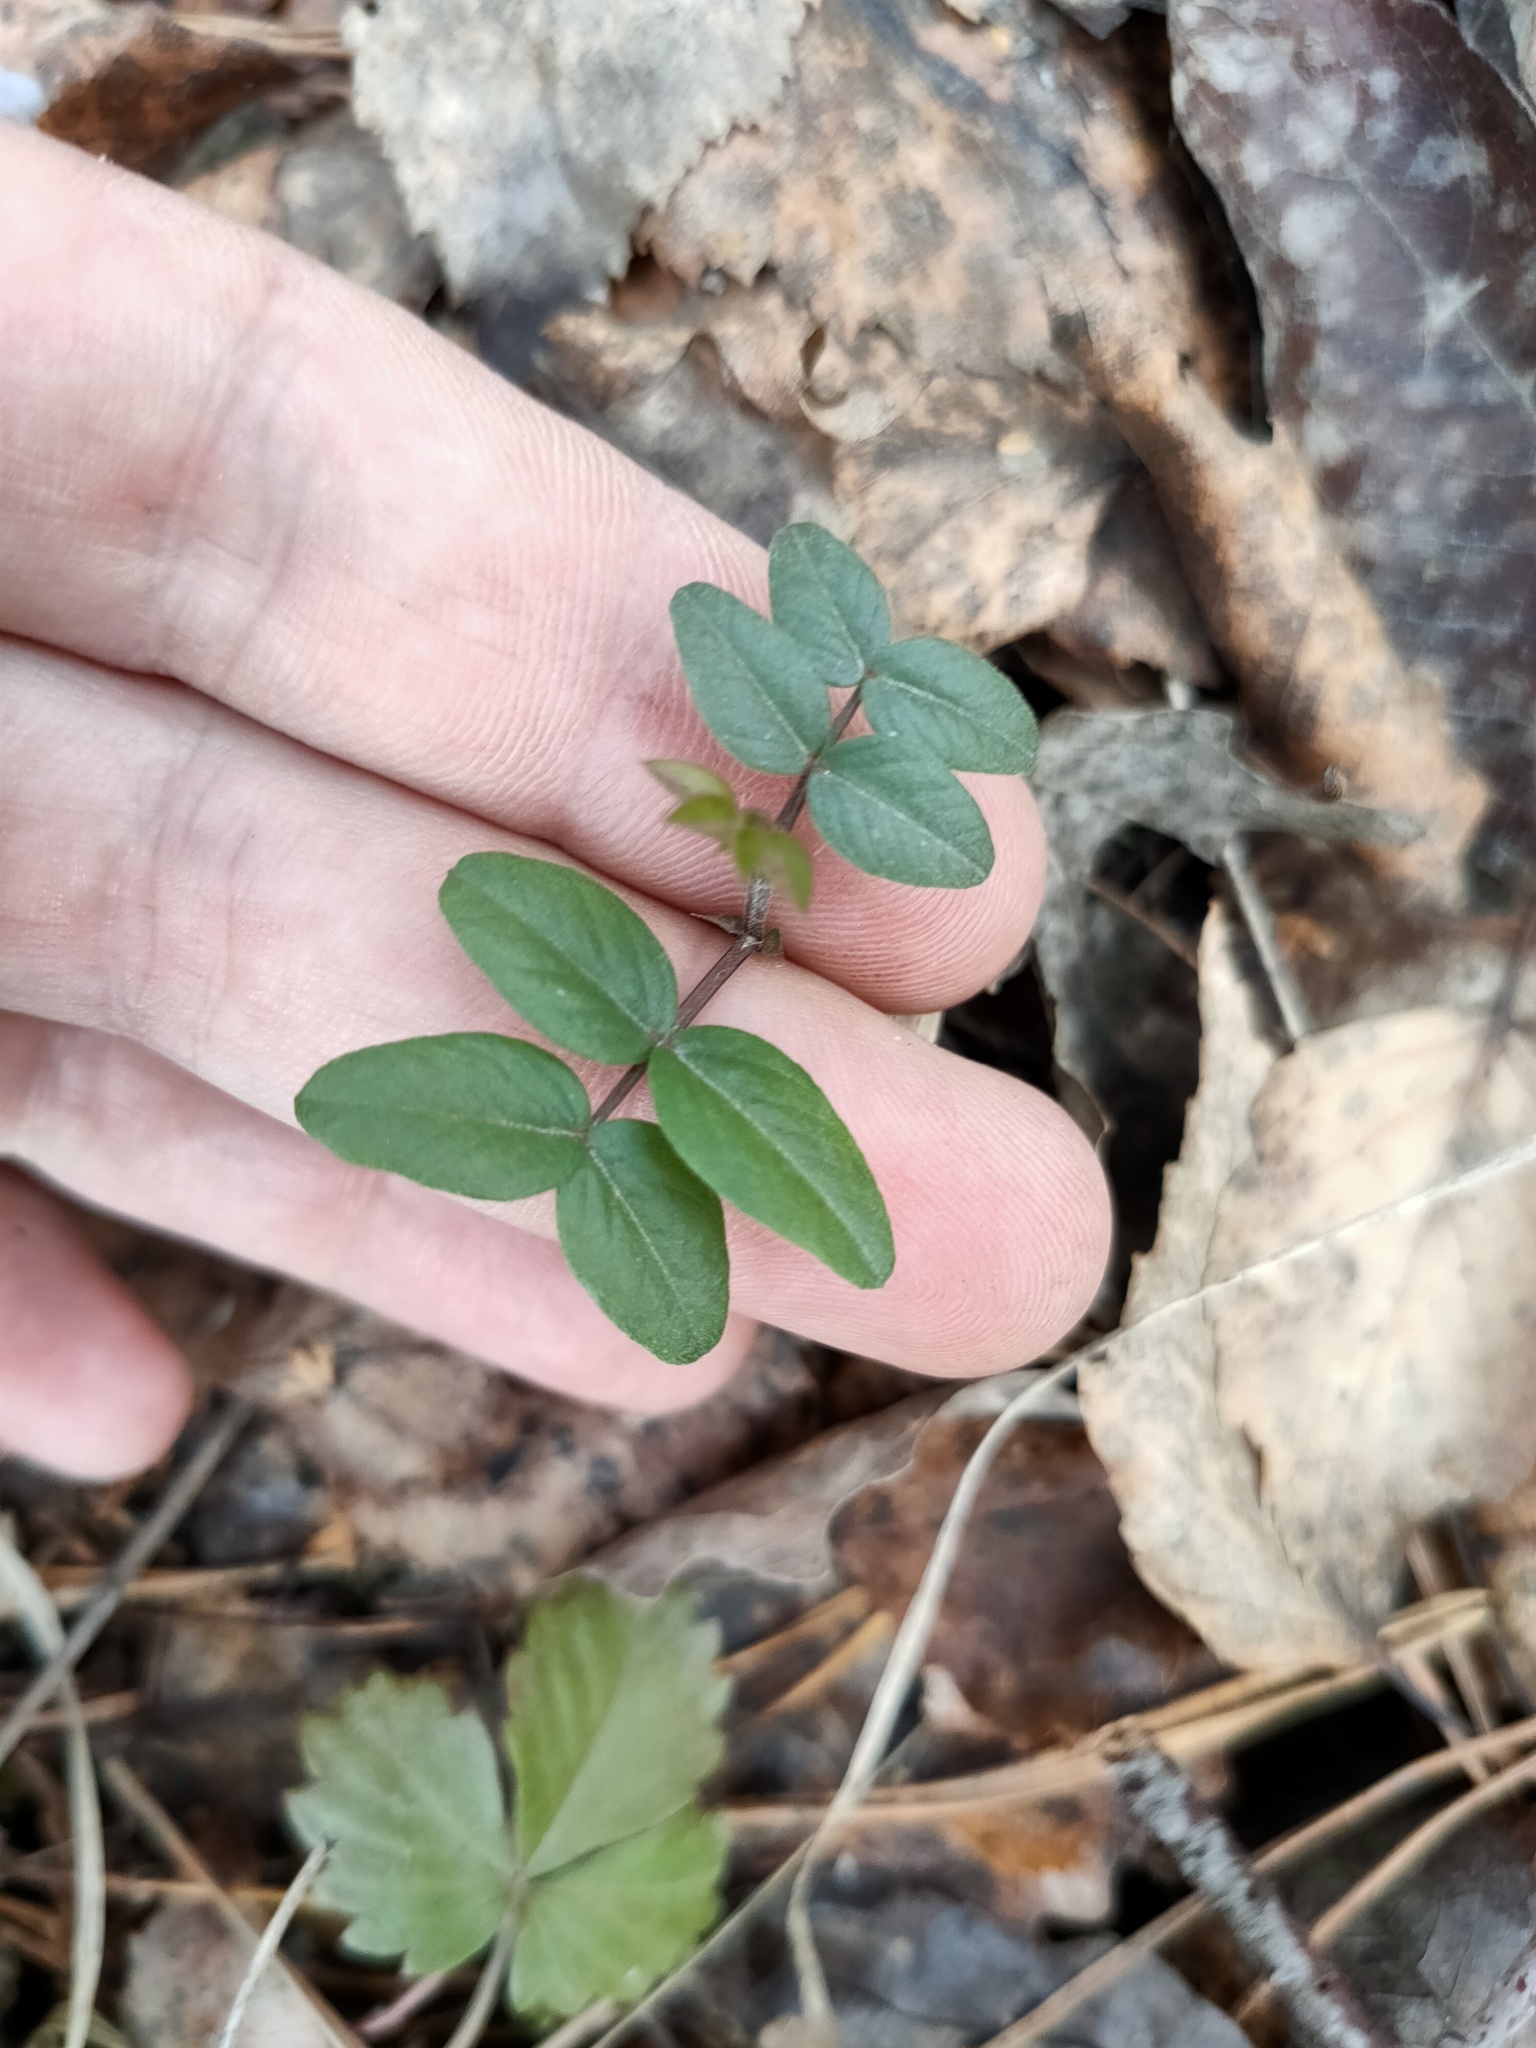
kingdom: Plantae
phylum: Tracheophyta
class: Magnoliopsida
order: Fabales
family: Fabaceae
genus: Vicia
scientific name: Vicia sepium
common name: Bush vetch
